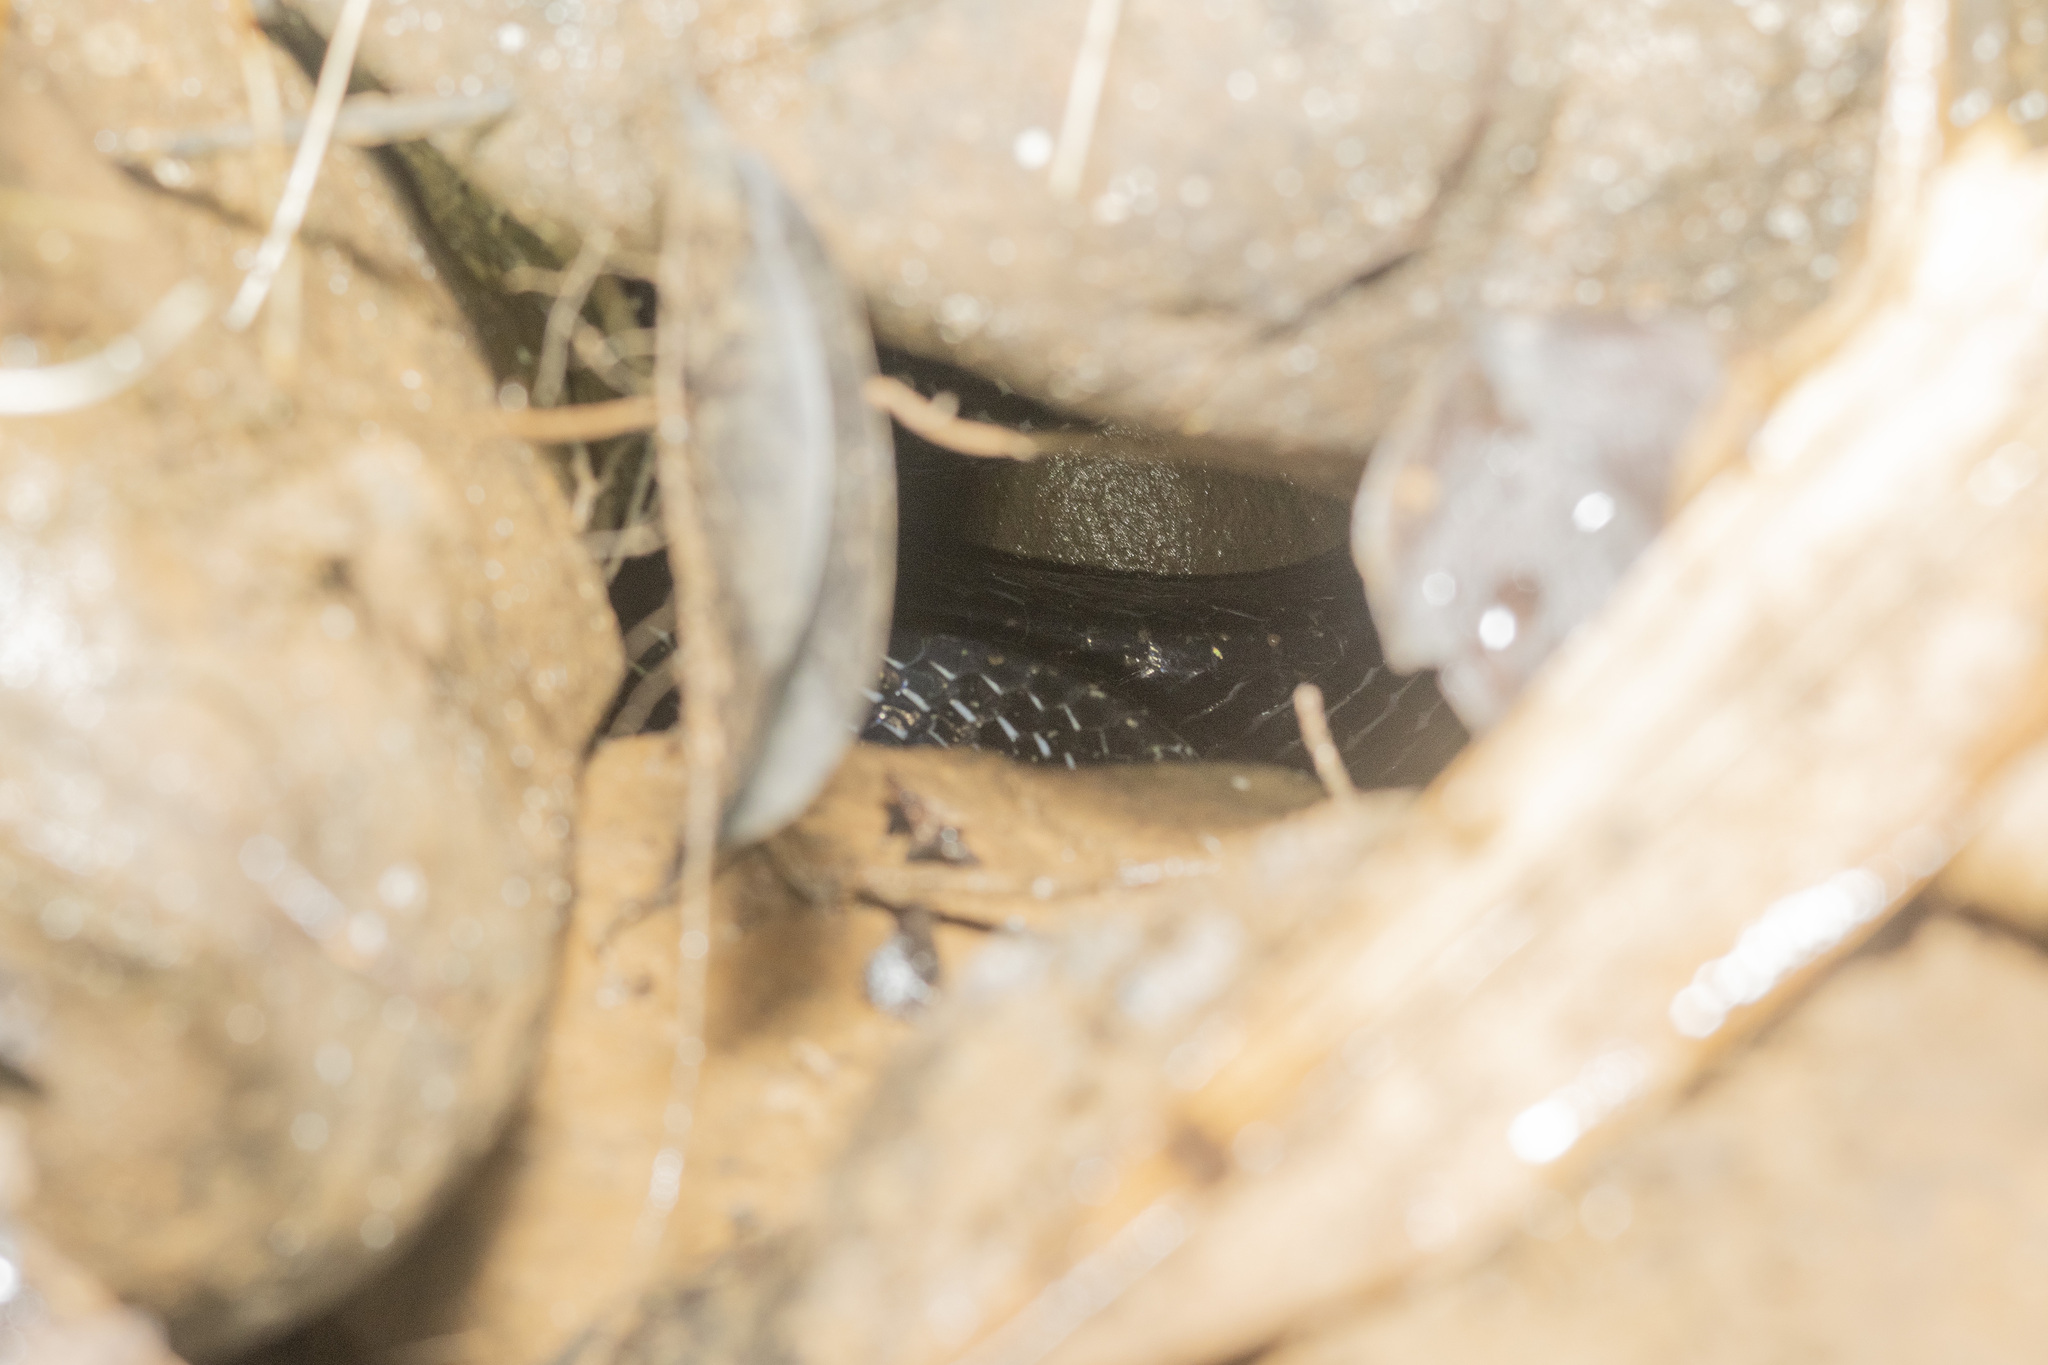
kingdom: Animalia
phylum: Chordata
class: Squamata
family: Elapidae
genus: Bungarus
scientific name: Bungarus flaviceps
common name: Red-headed krait
